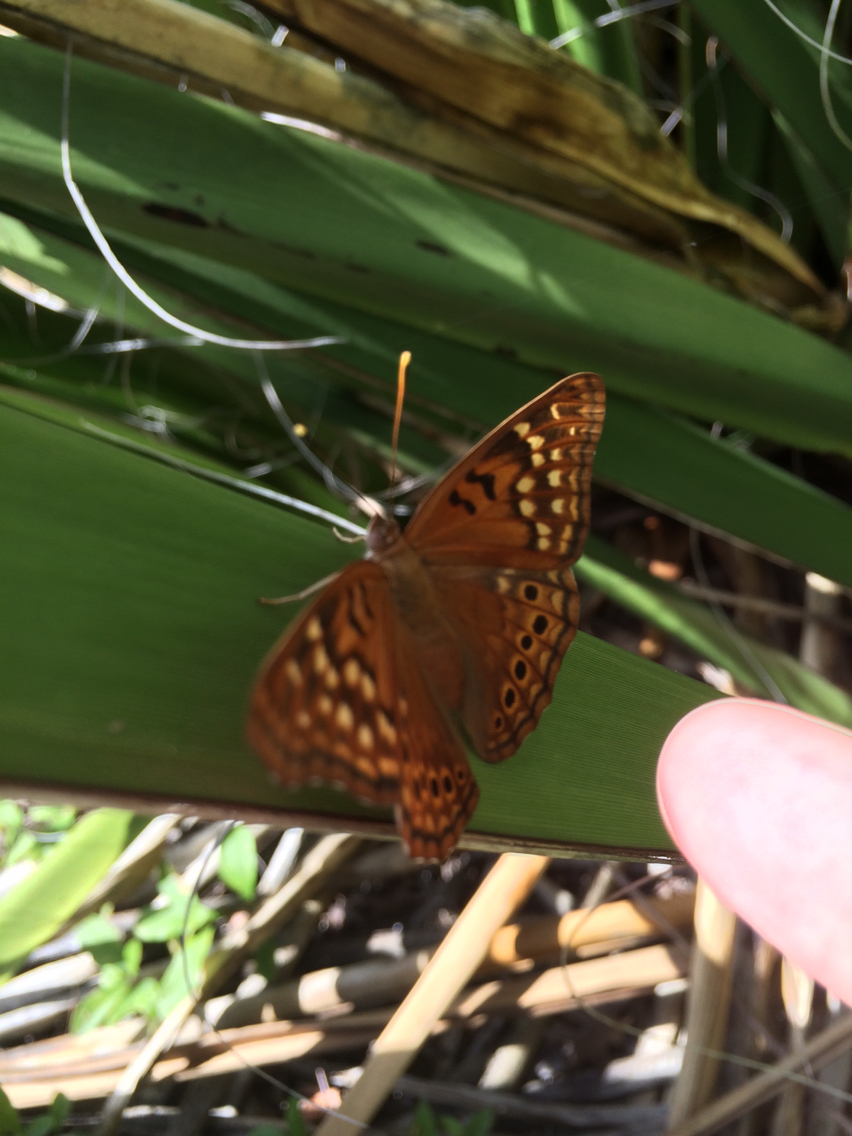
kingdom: Animalia
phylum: Arthropoda
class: Insecta
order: Lepidoptera
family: Nymphalidae
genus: Asterocampa
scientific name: Asterocampa clyton
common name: Tawny emperor
